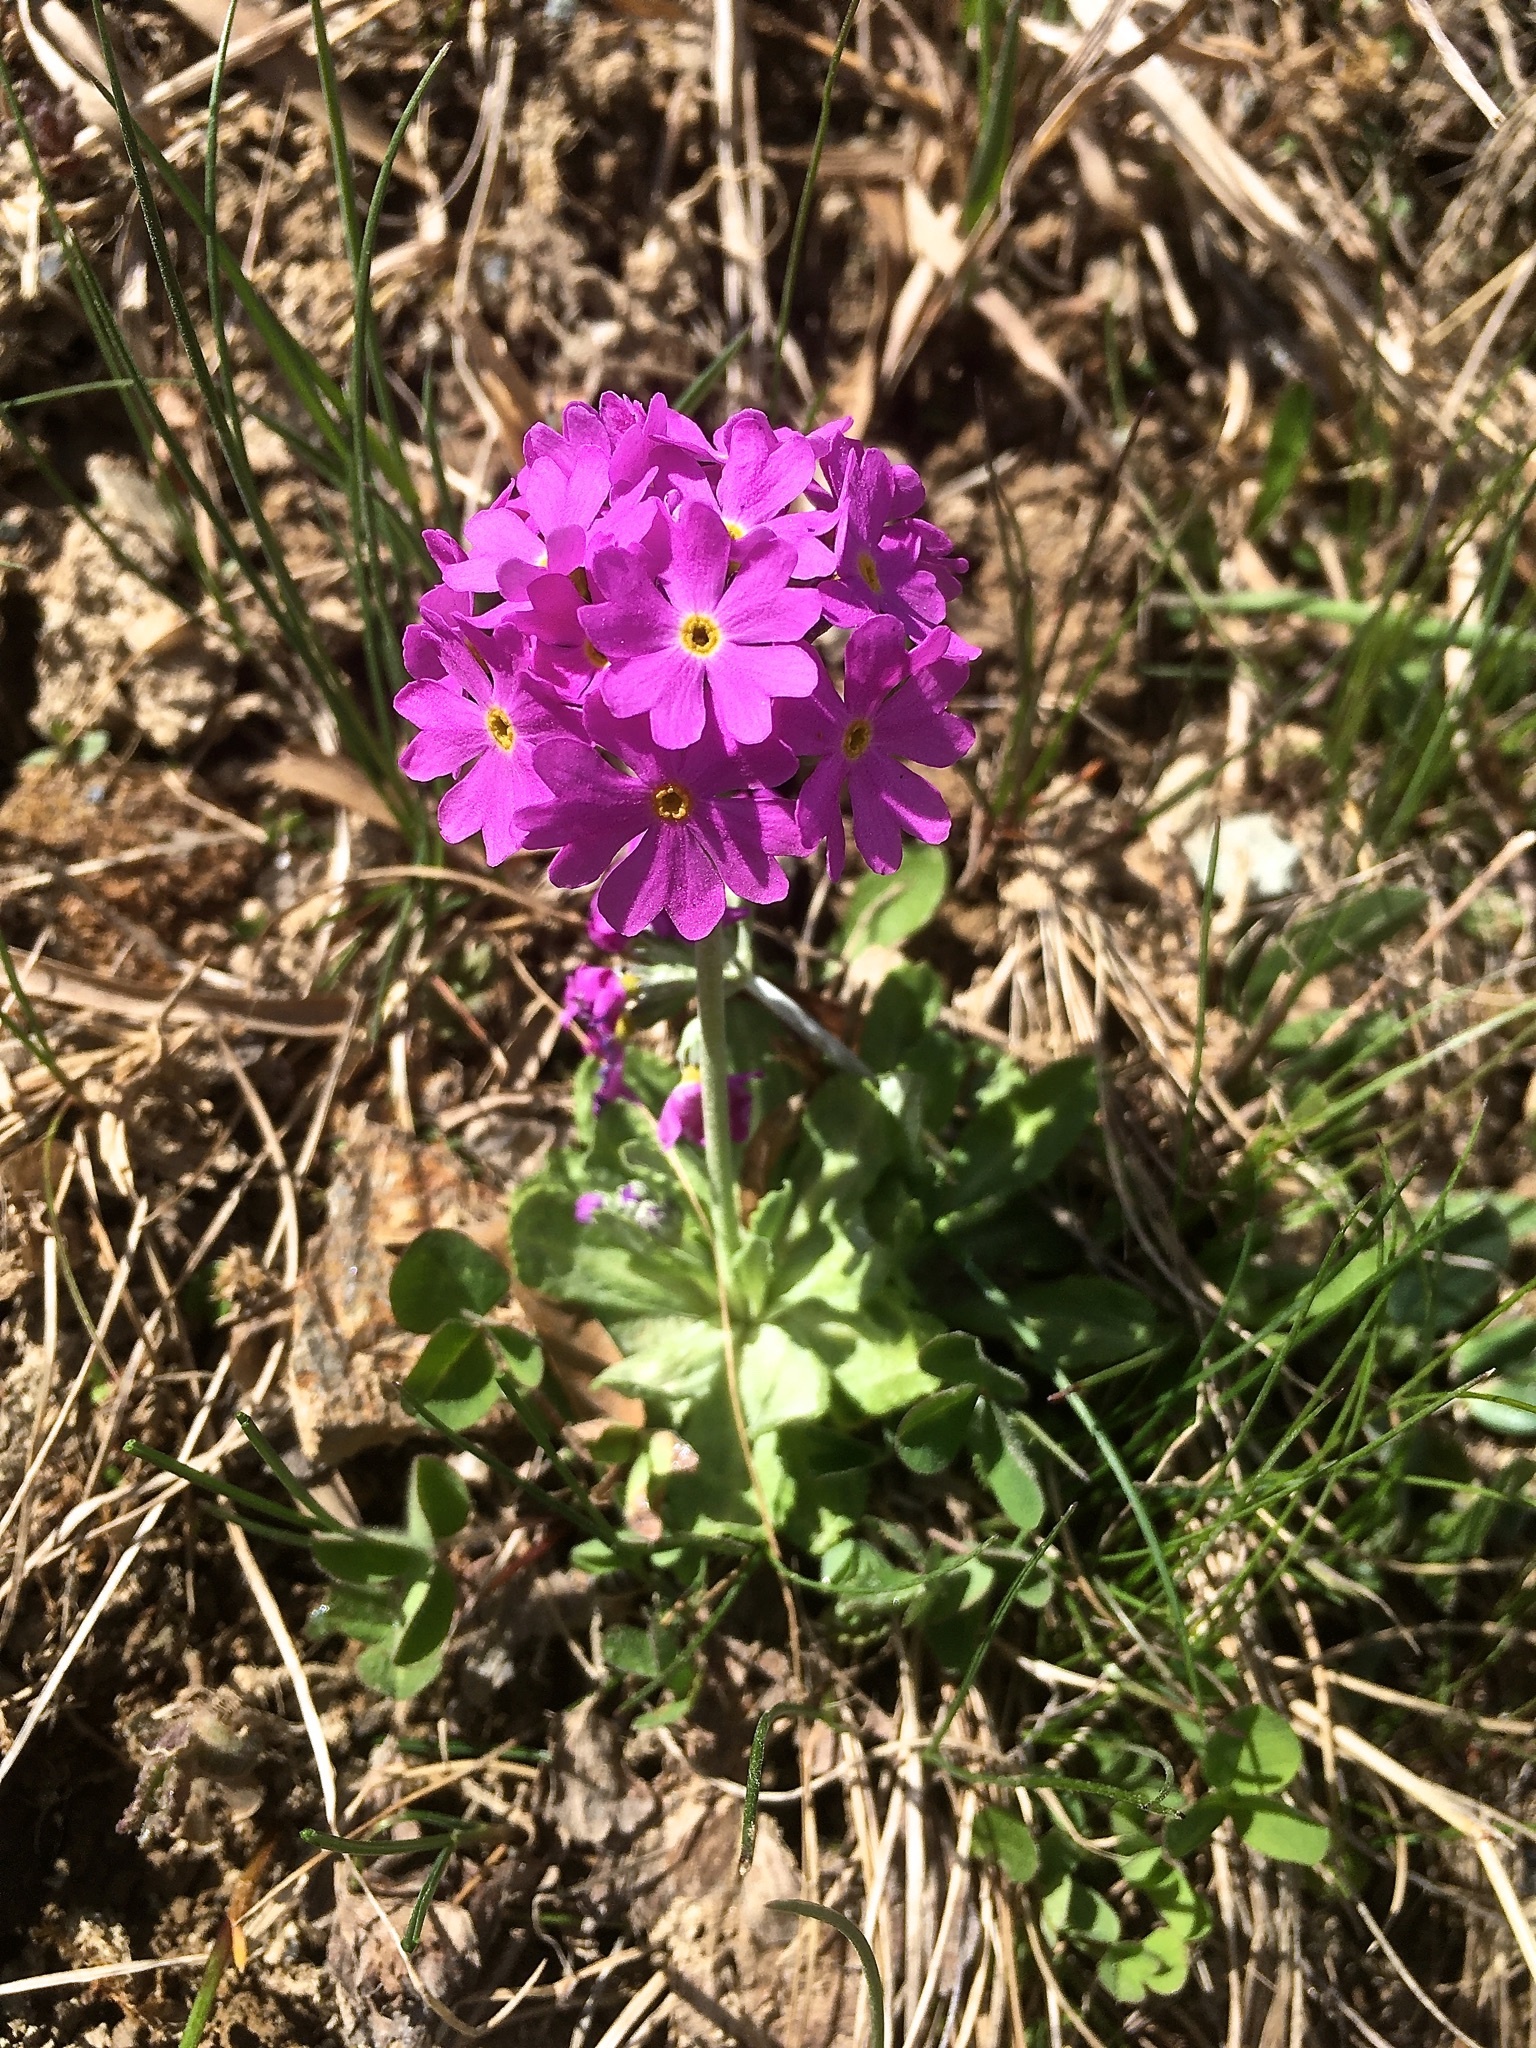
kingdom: Plantae
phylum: Tracheophyta
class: Magnoliopsida
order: Ericales
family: Primulaceae
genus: Primula
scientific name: Primula farinosa
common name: Bird's-eye primrose
